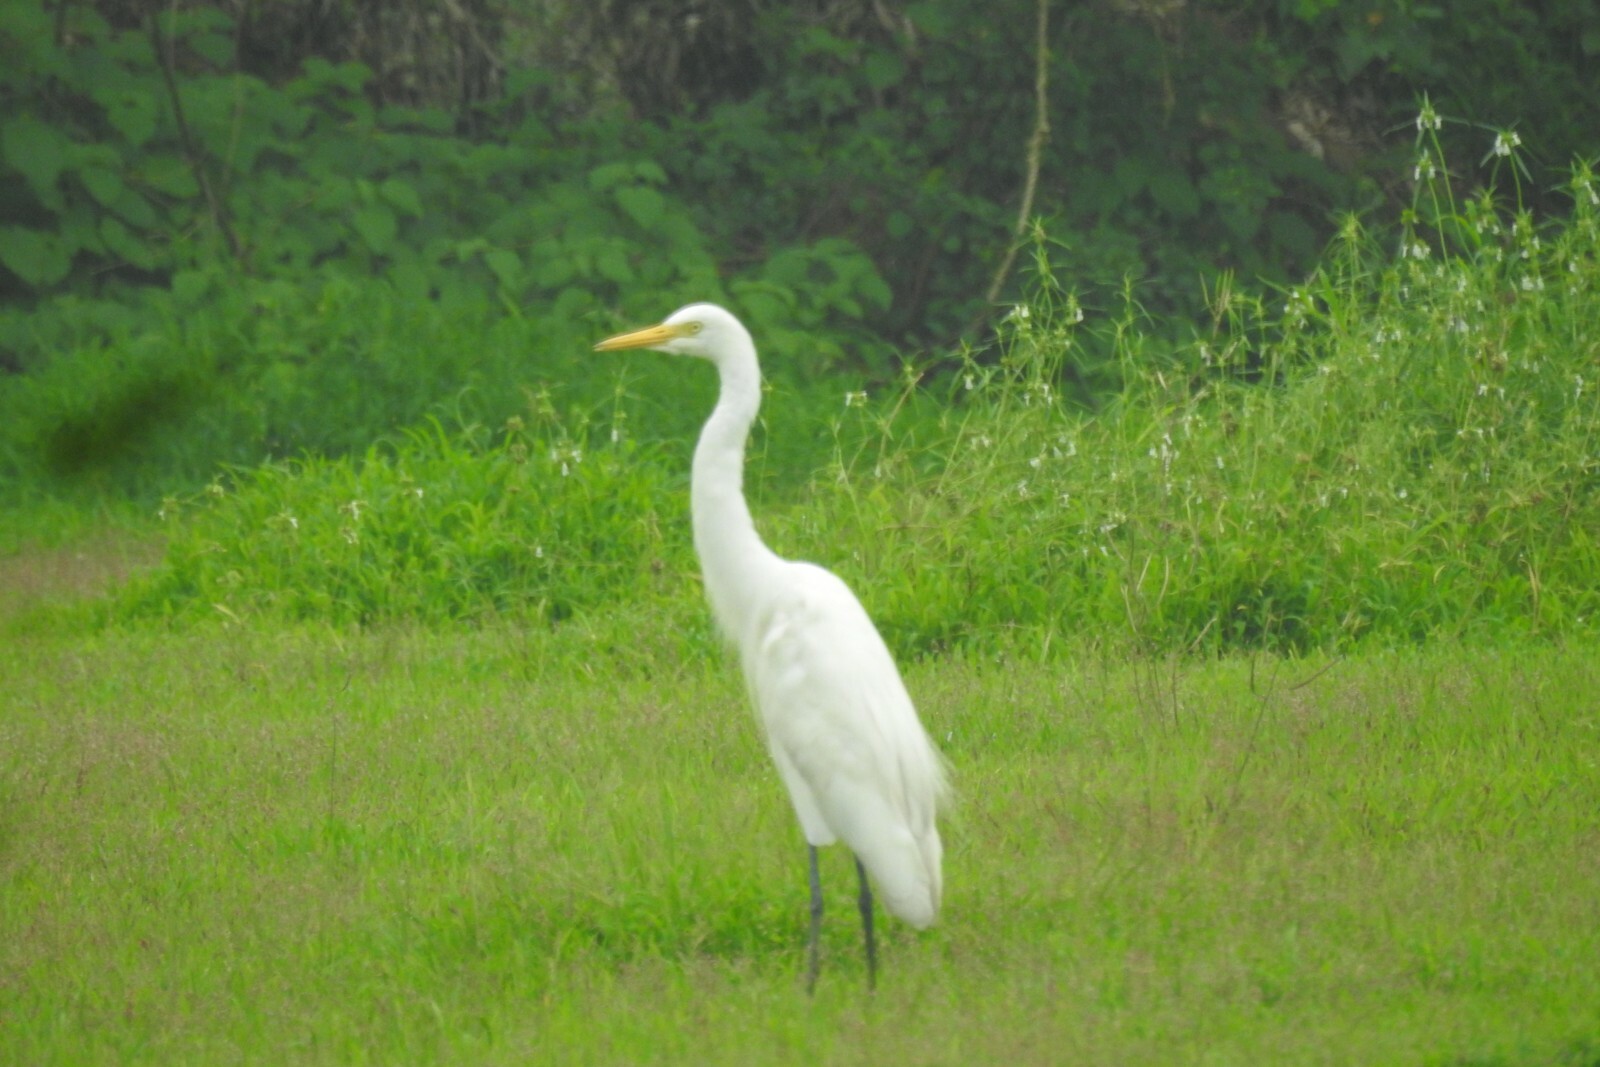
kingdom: Animalia
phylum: Chordata
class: Aves
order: Pelecaniformes
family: Ardeidae
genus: Egretta
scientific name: Egretta intermedia
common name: Intermediate egret
